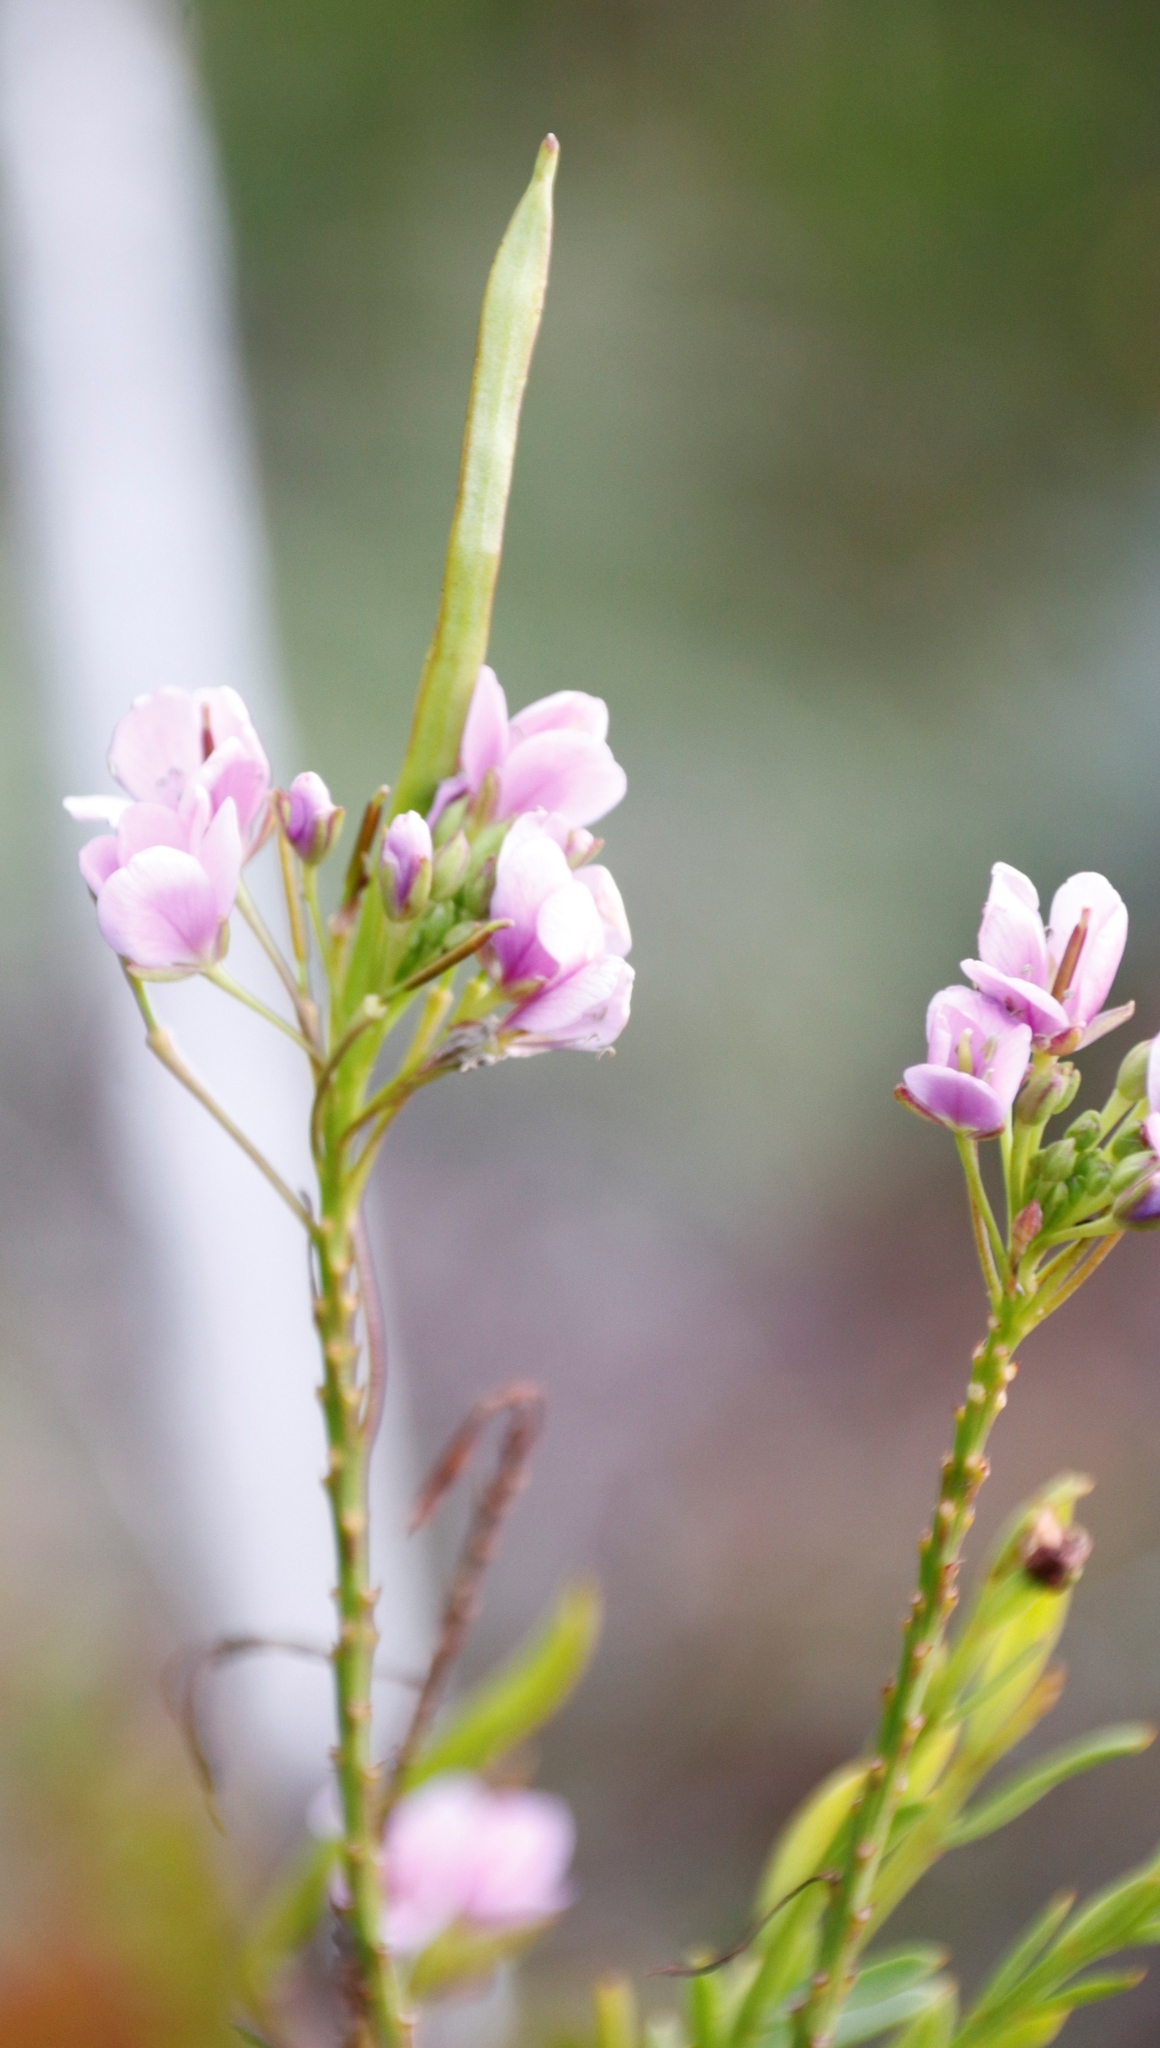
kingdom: Plantae
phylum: Tracheophyta
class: Magnoliopsida
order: Brassicales
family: Brassicaceae
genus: Heliophila
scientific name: Heliophila callosa
